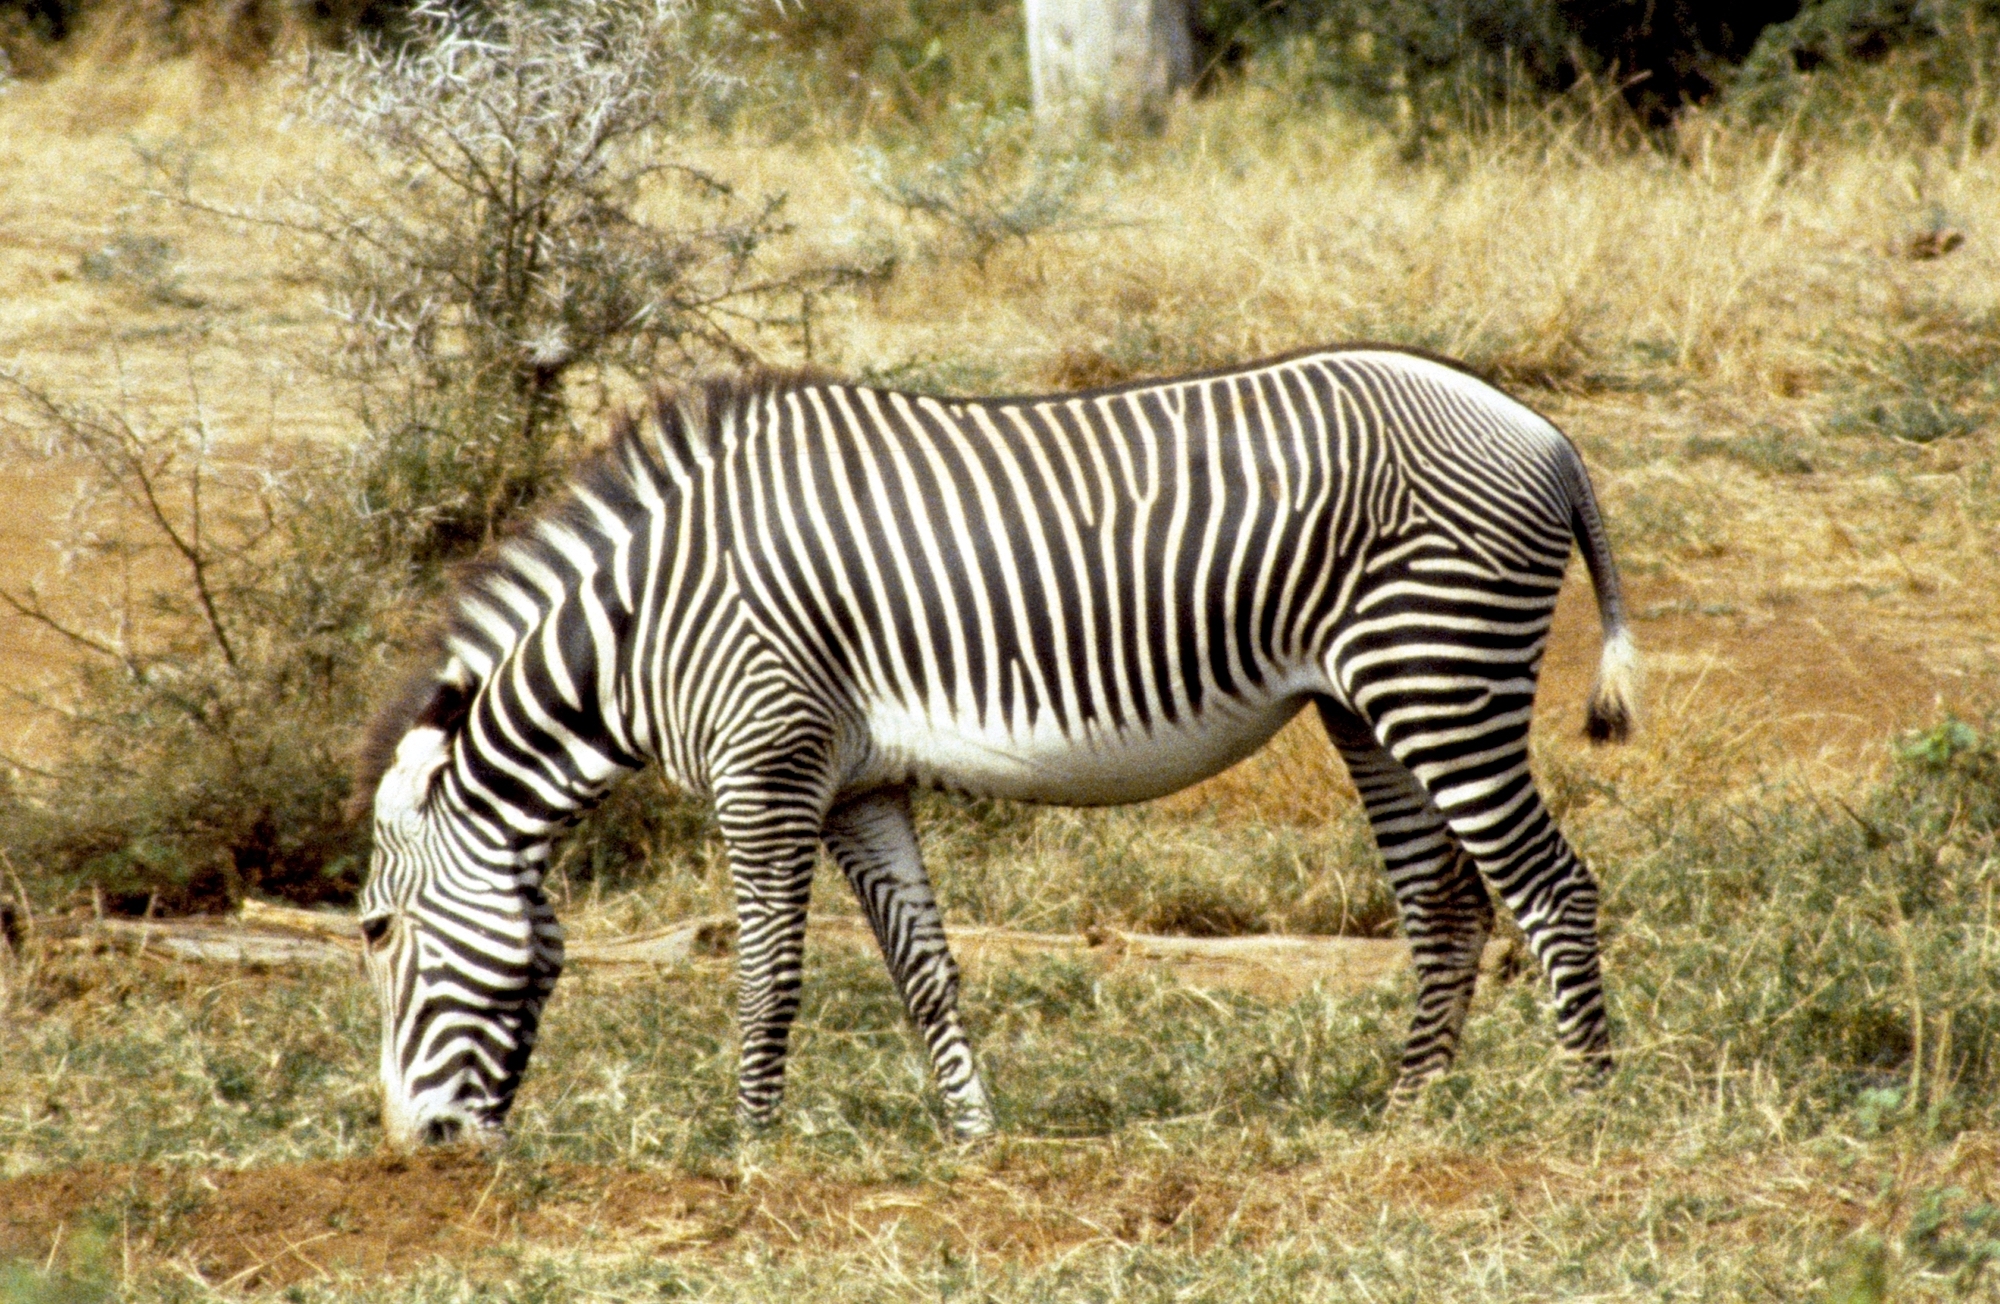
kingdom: Animalia
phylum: Chordata
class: Mammalia
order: Perissodactyla
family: Equidae
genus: Equus
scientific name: Equus grevyi
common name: Grevy's zebra
